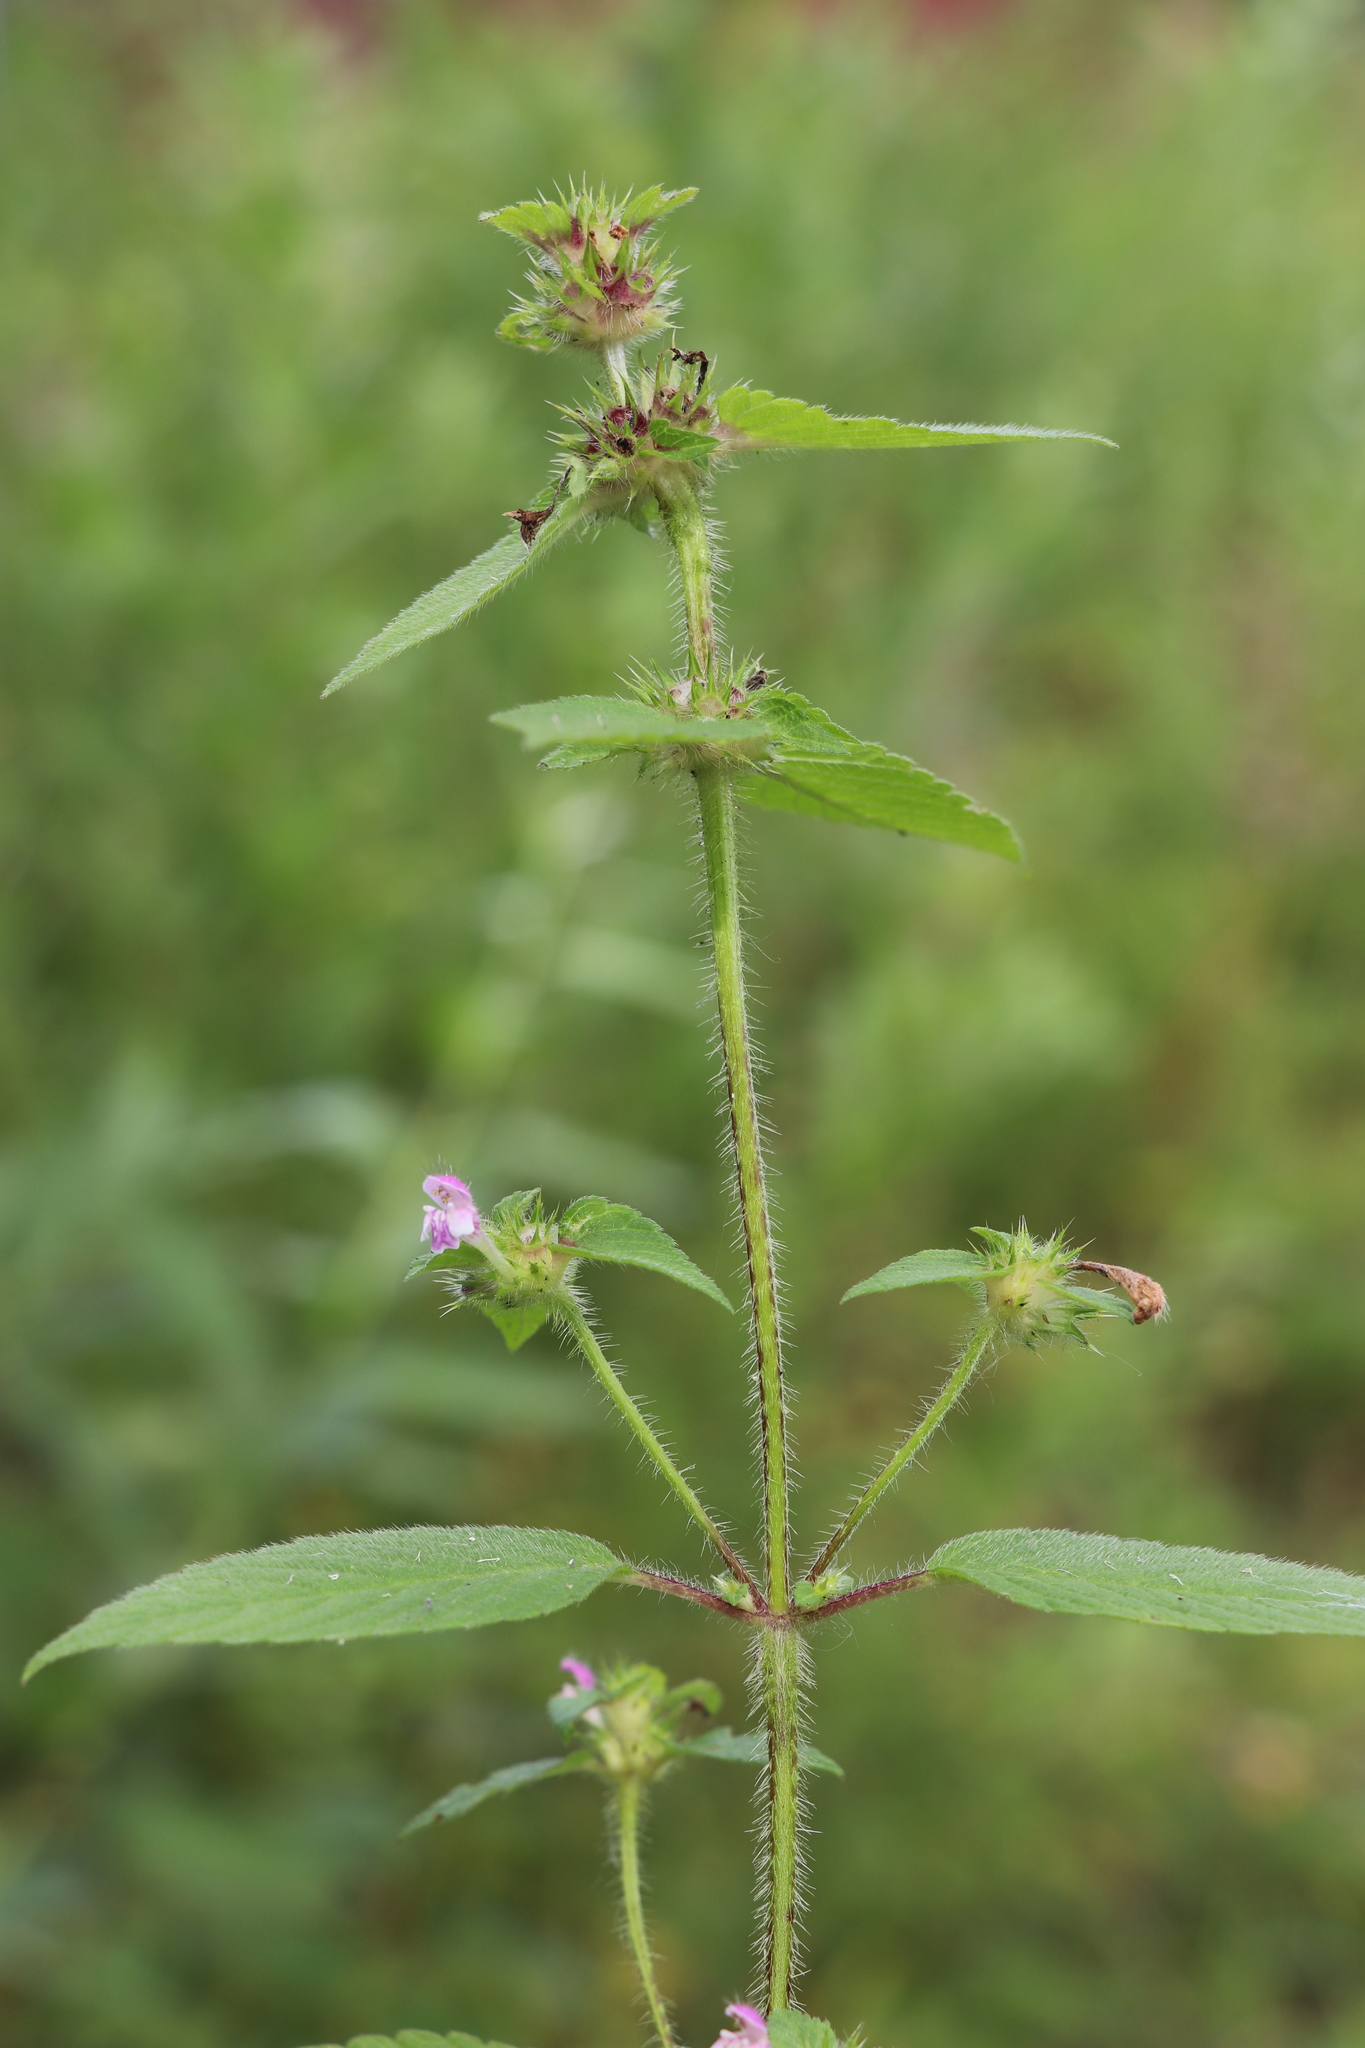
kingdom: Plantae
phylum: Tracheophyta
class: Magnoliopsida
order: Lamiales
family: Lamiaceae
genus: Galeopsis
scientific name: Galeopsis bifida
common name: Bifid hemp-nettle
